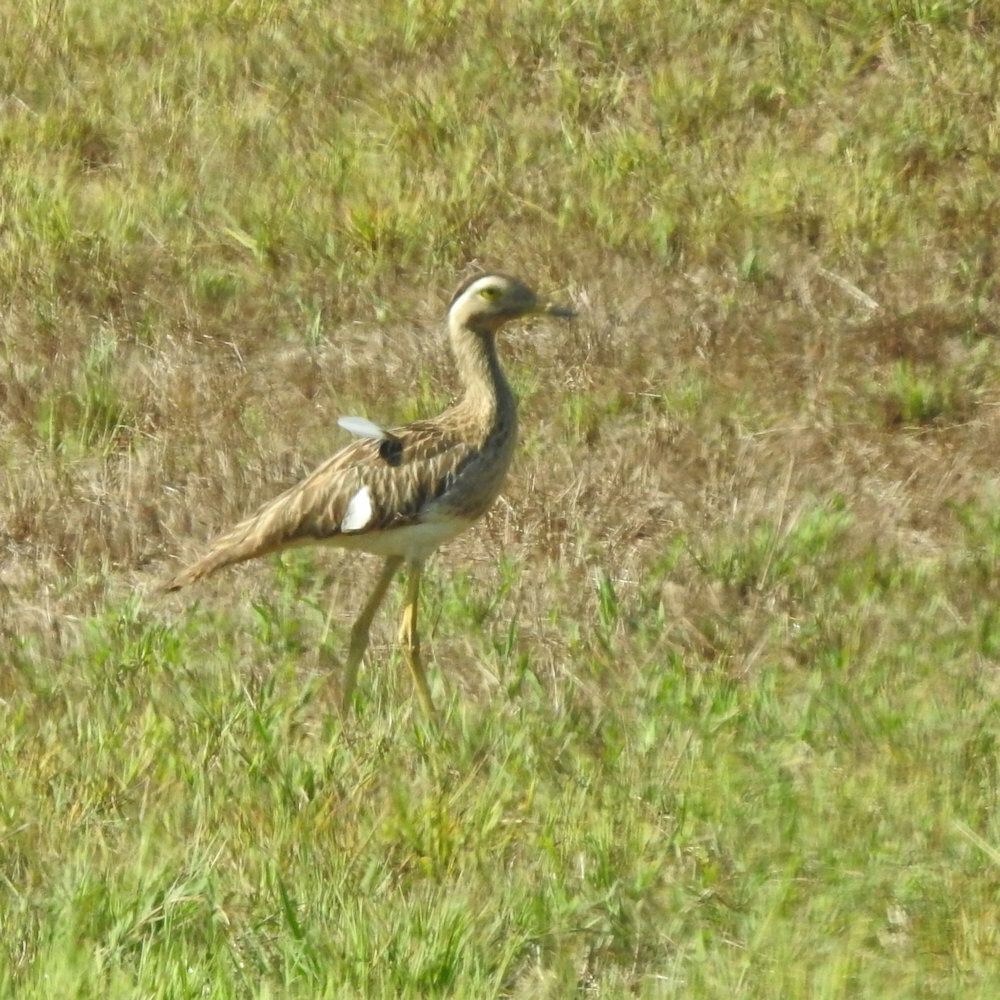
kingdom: Animalia
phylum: Chordata
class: Aves
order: Charadriiformes
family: Burhinidae
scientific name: Burhinidae
